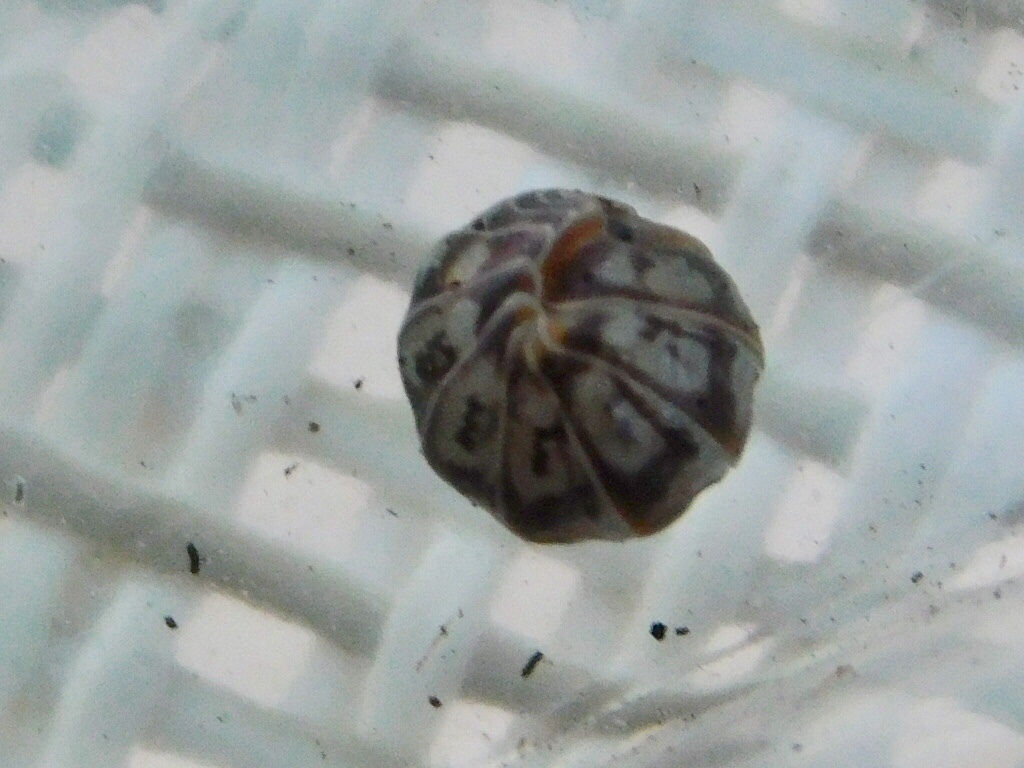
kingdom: Animalia
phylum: Arthropoda
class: Malacostraca
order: Isopoda
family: Armadillidae
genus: Venezillo
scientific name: Venezillo parvus
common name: Pillbug
